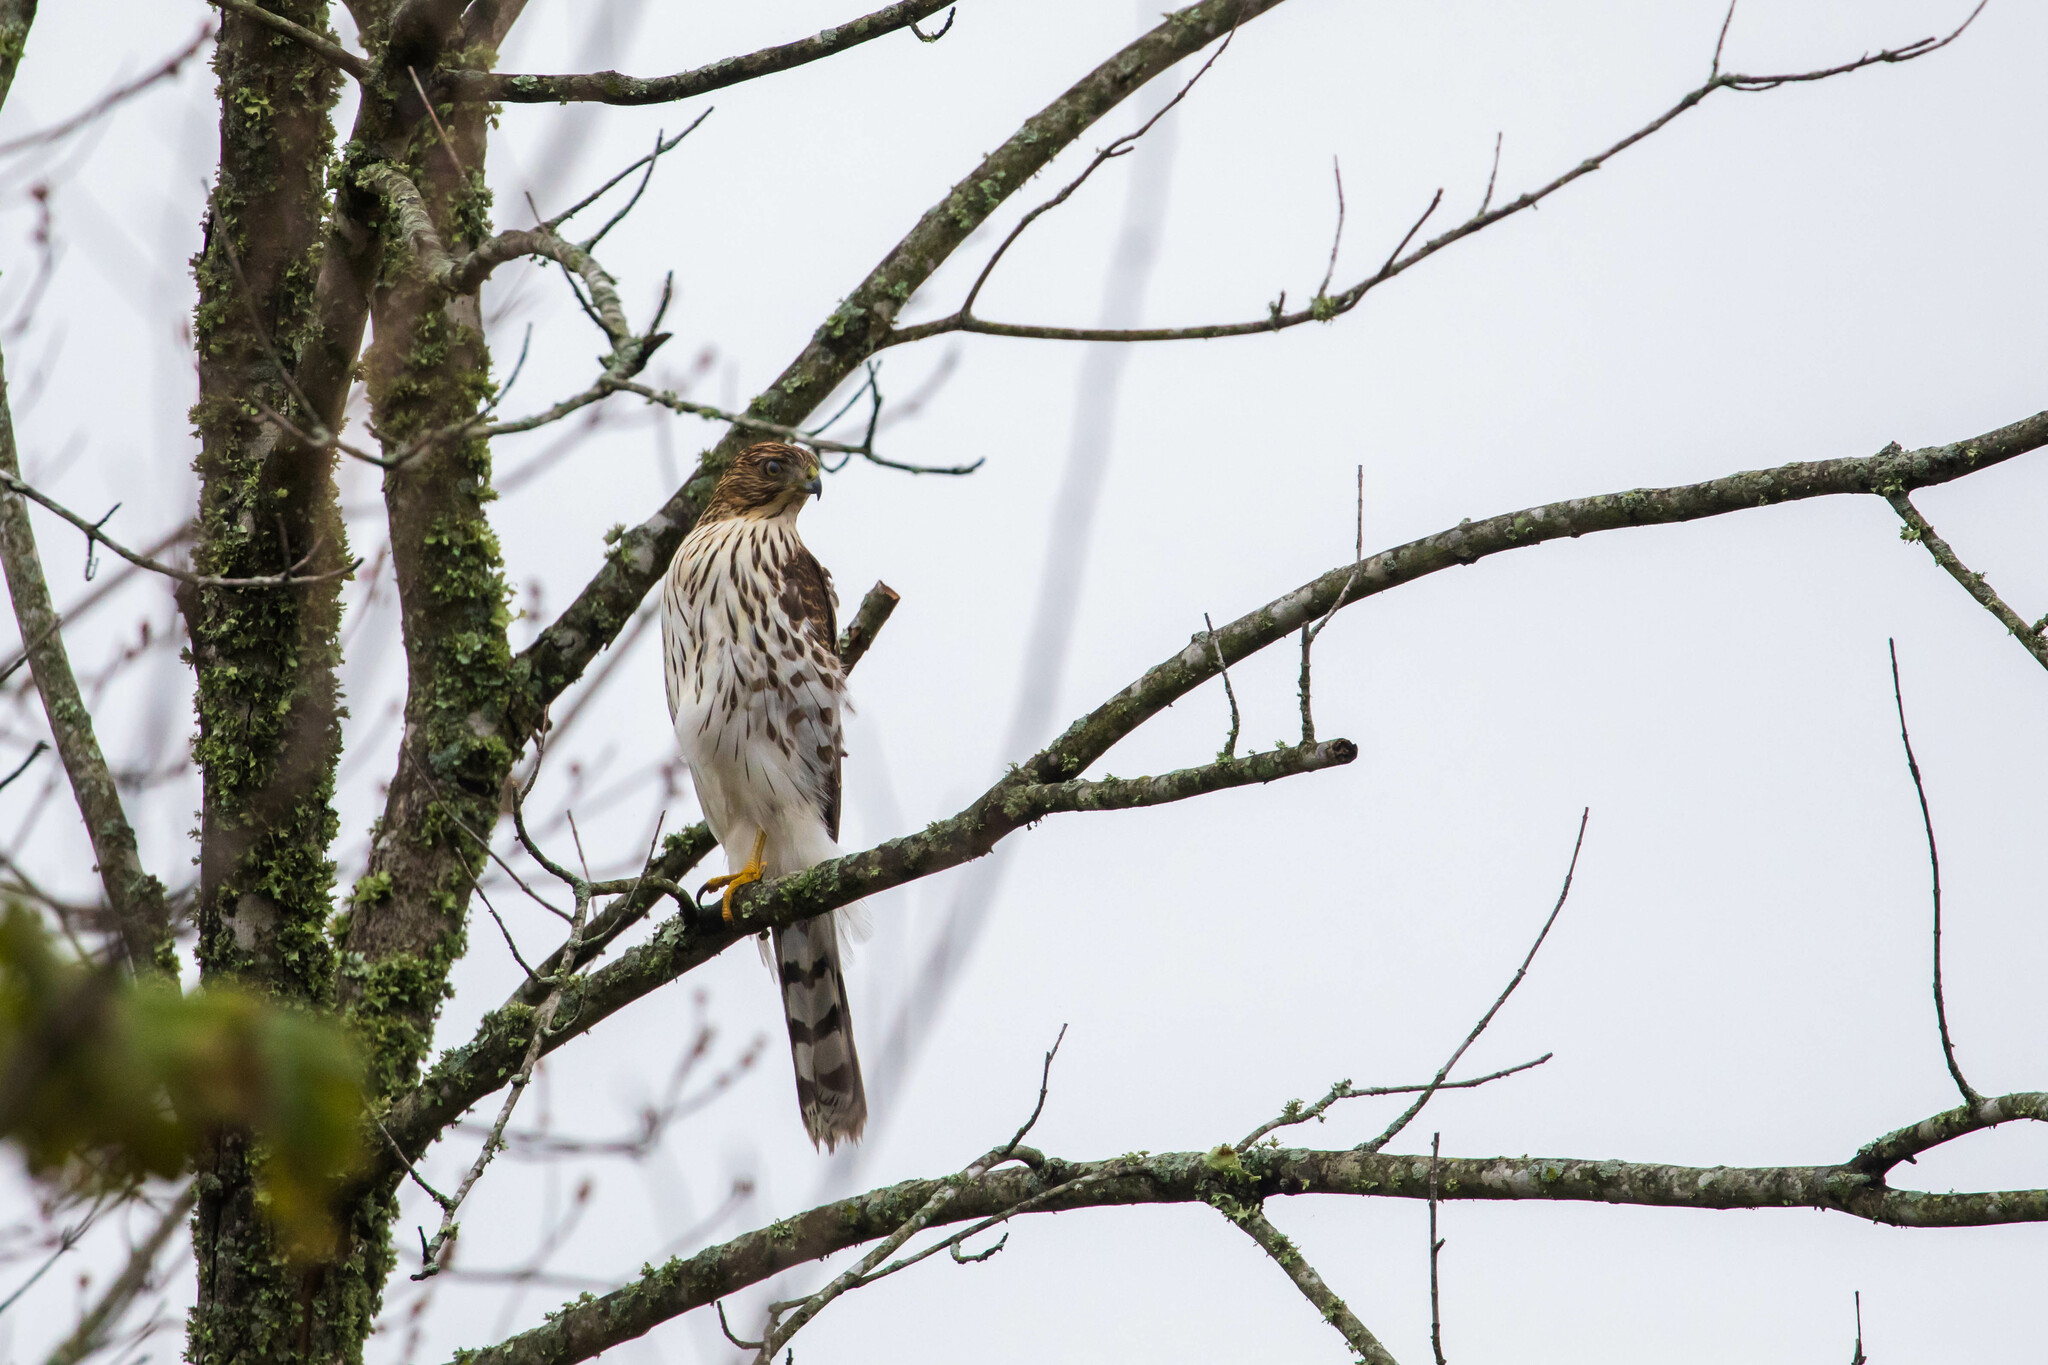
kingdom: Animalia
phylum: Chordata
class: Aves
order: Accipitriformes
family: Accipitridae
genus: Accipiter
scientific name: Accipiter cooperii
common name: Cooper's hawk
